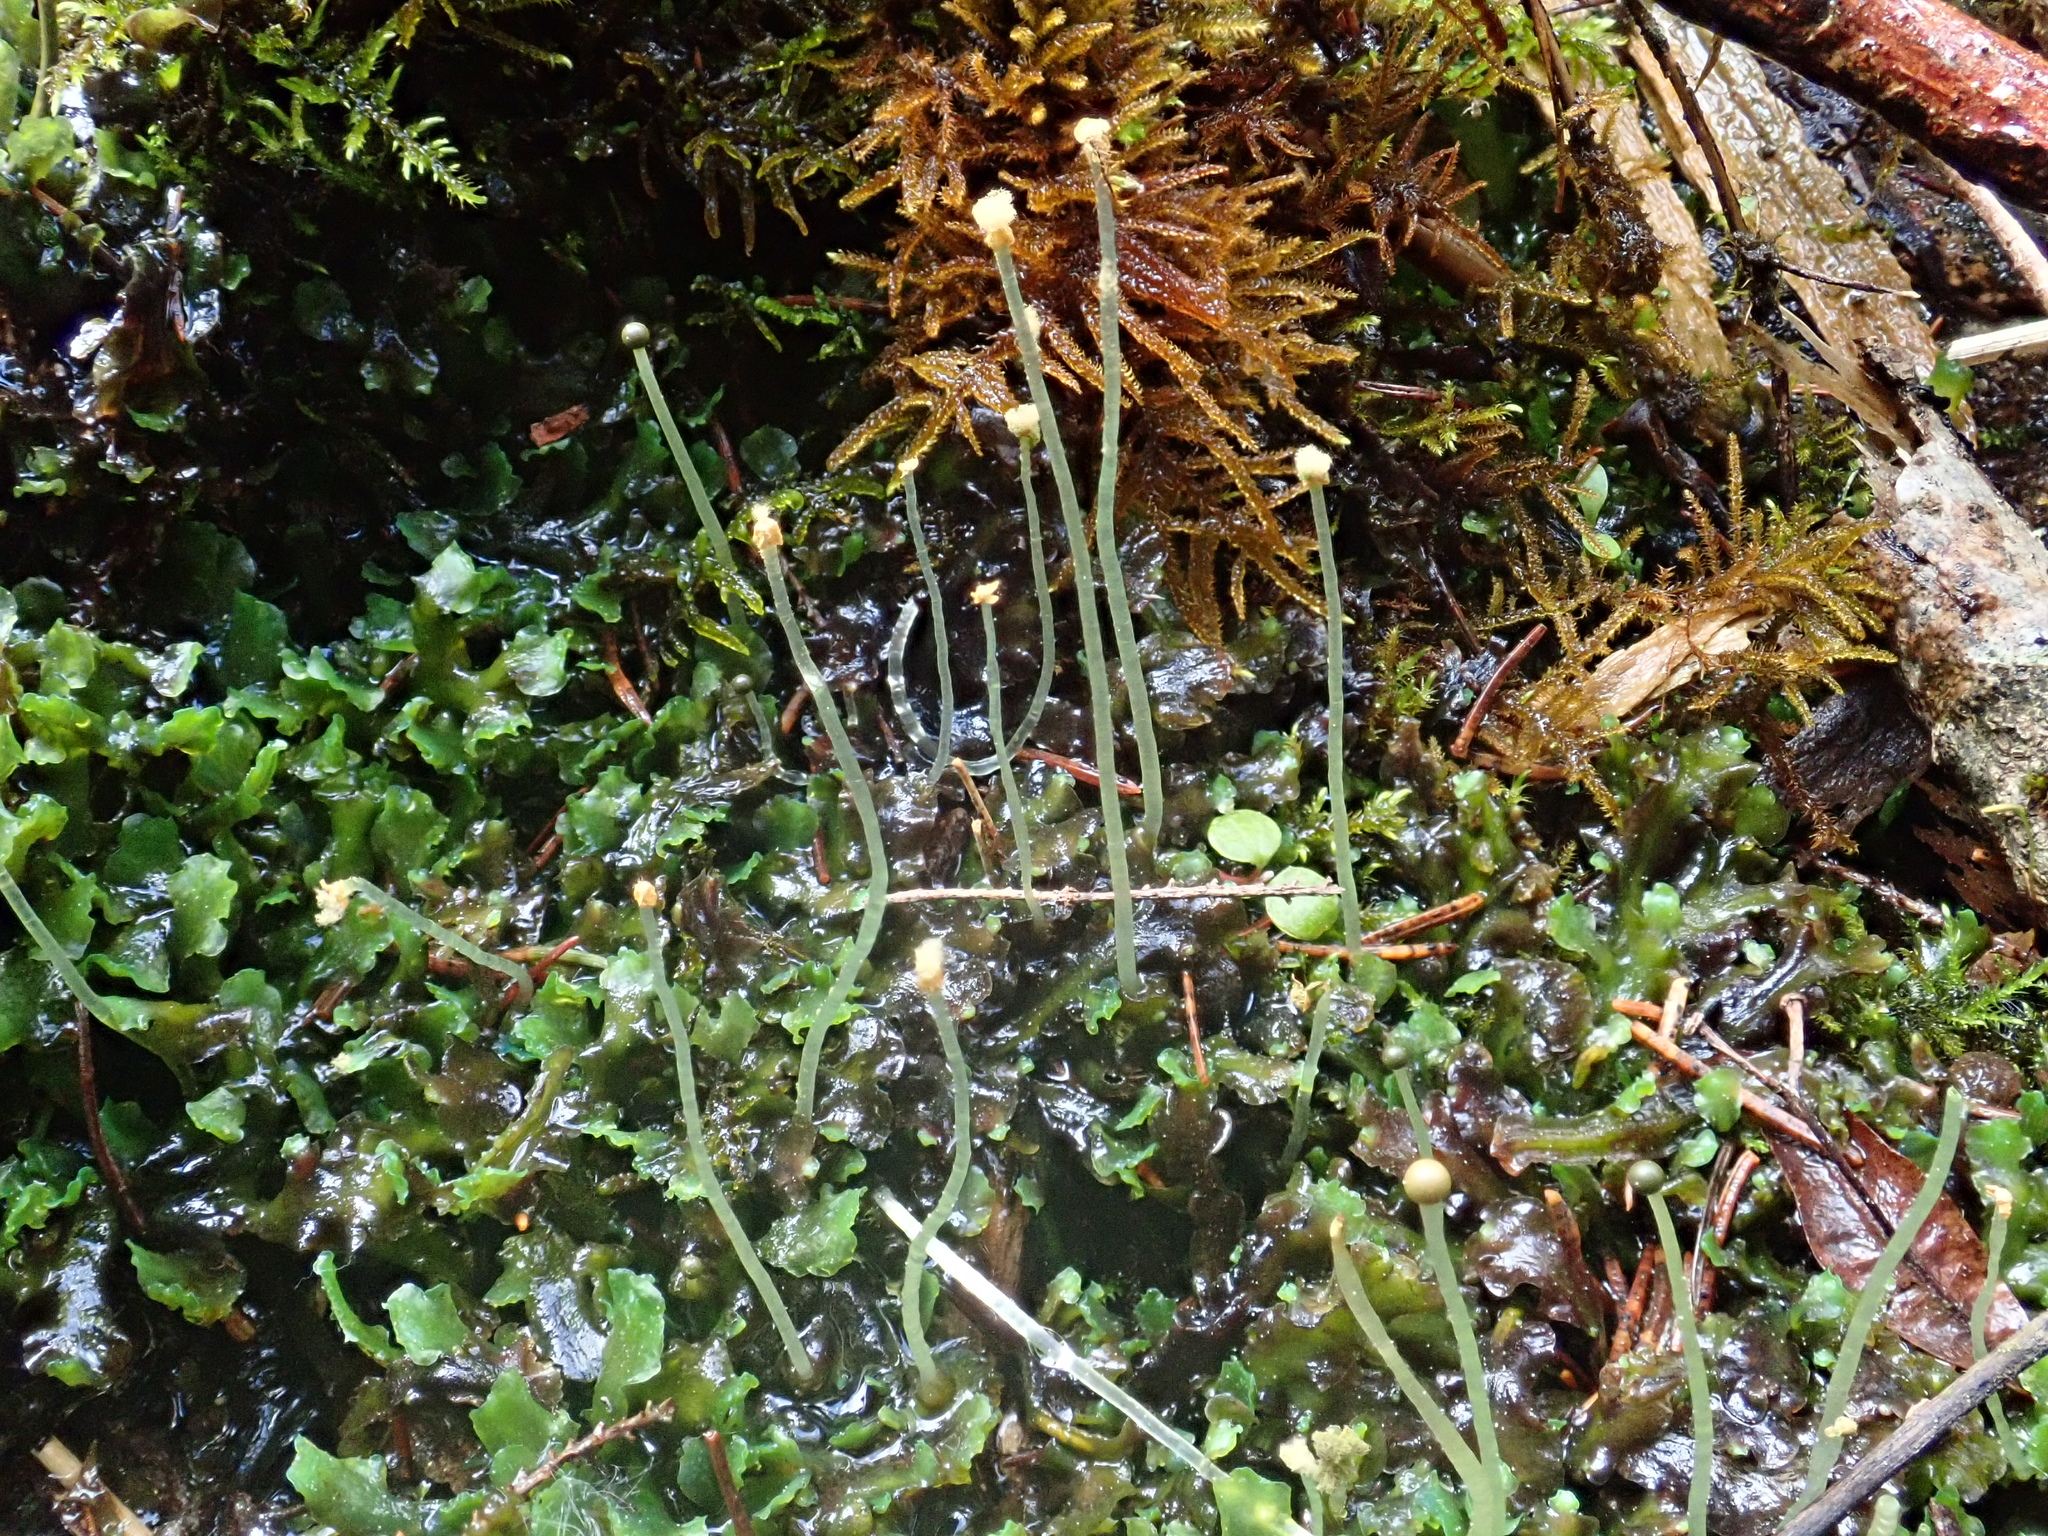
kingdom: Plantae
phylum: Marchantiophyta
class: Jungermanniopsida
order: Pelliales
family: Pelliaceae
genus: Pellia
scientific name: Pellia neesiana
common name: Nees  pellia
